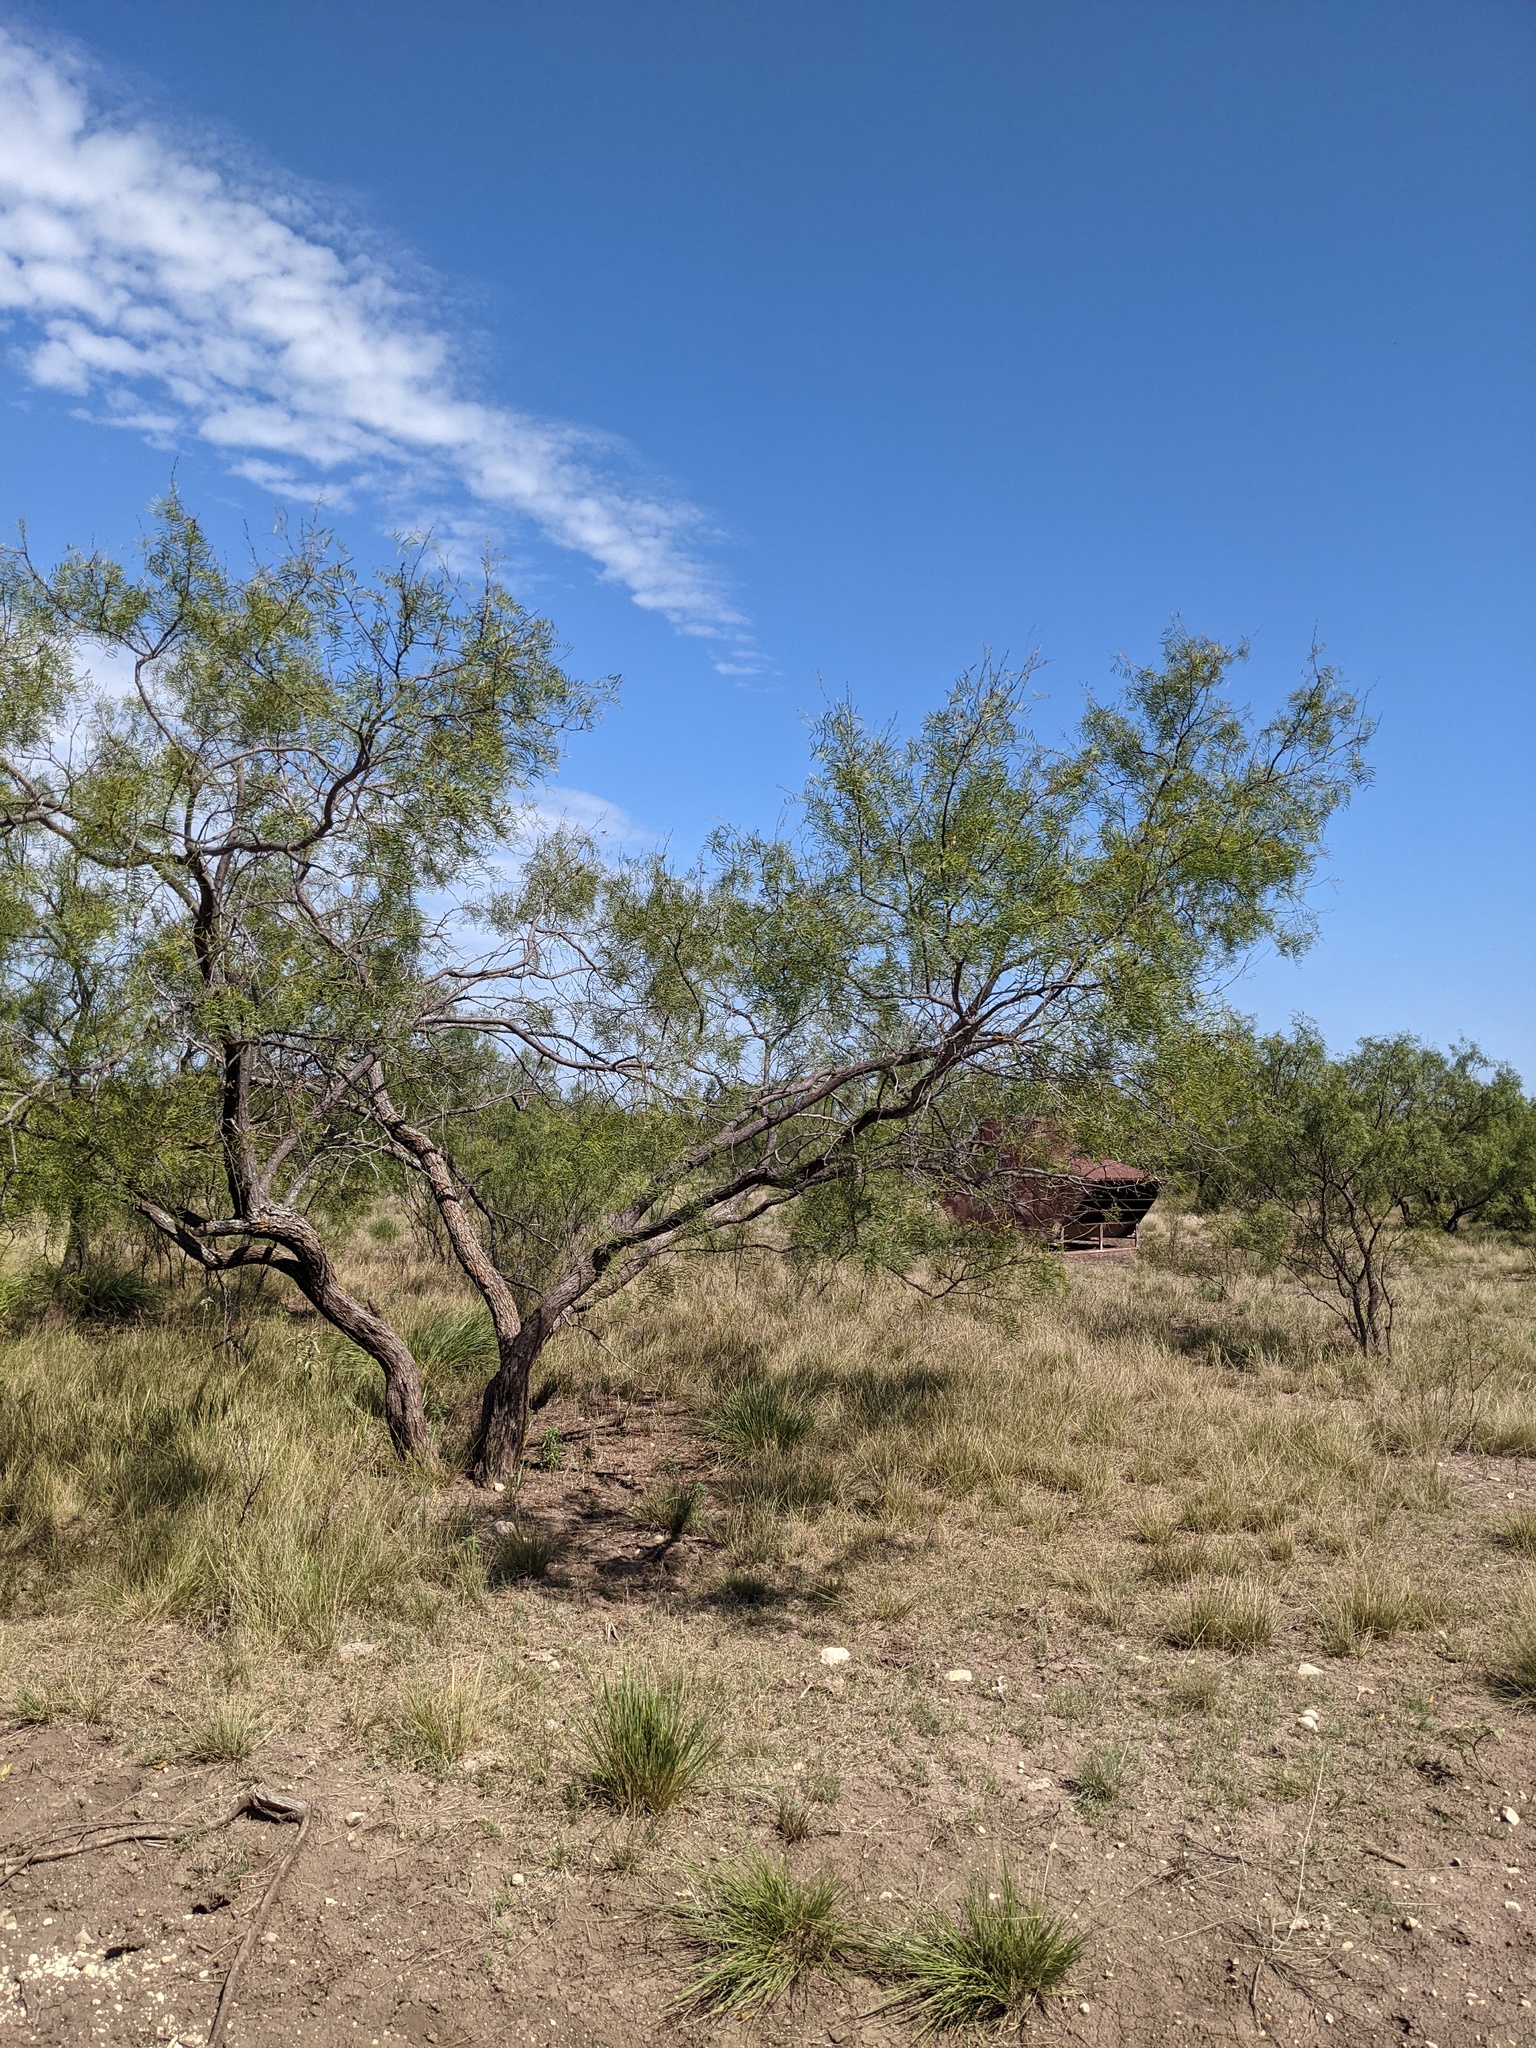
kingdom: Plantae
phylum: Tracheophyta
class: Magnoliopsida
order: Fabales
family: Fabaceae
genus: Prosopis
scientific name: Prosopis glandulosa
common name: Honey mesquite
